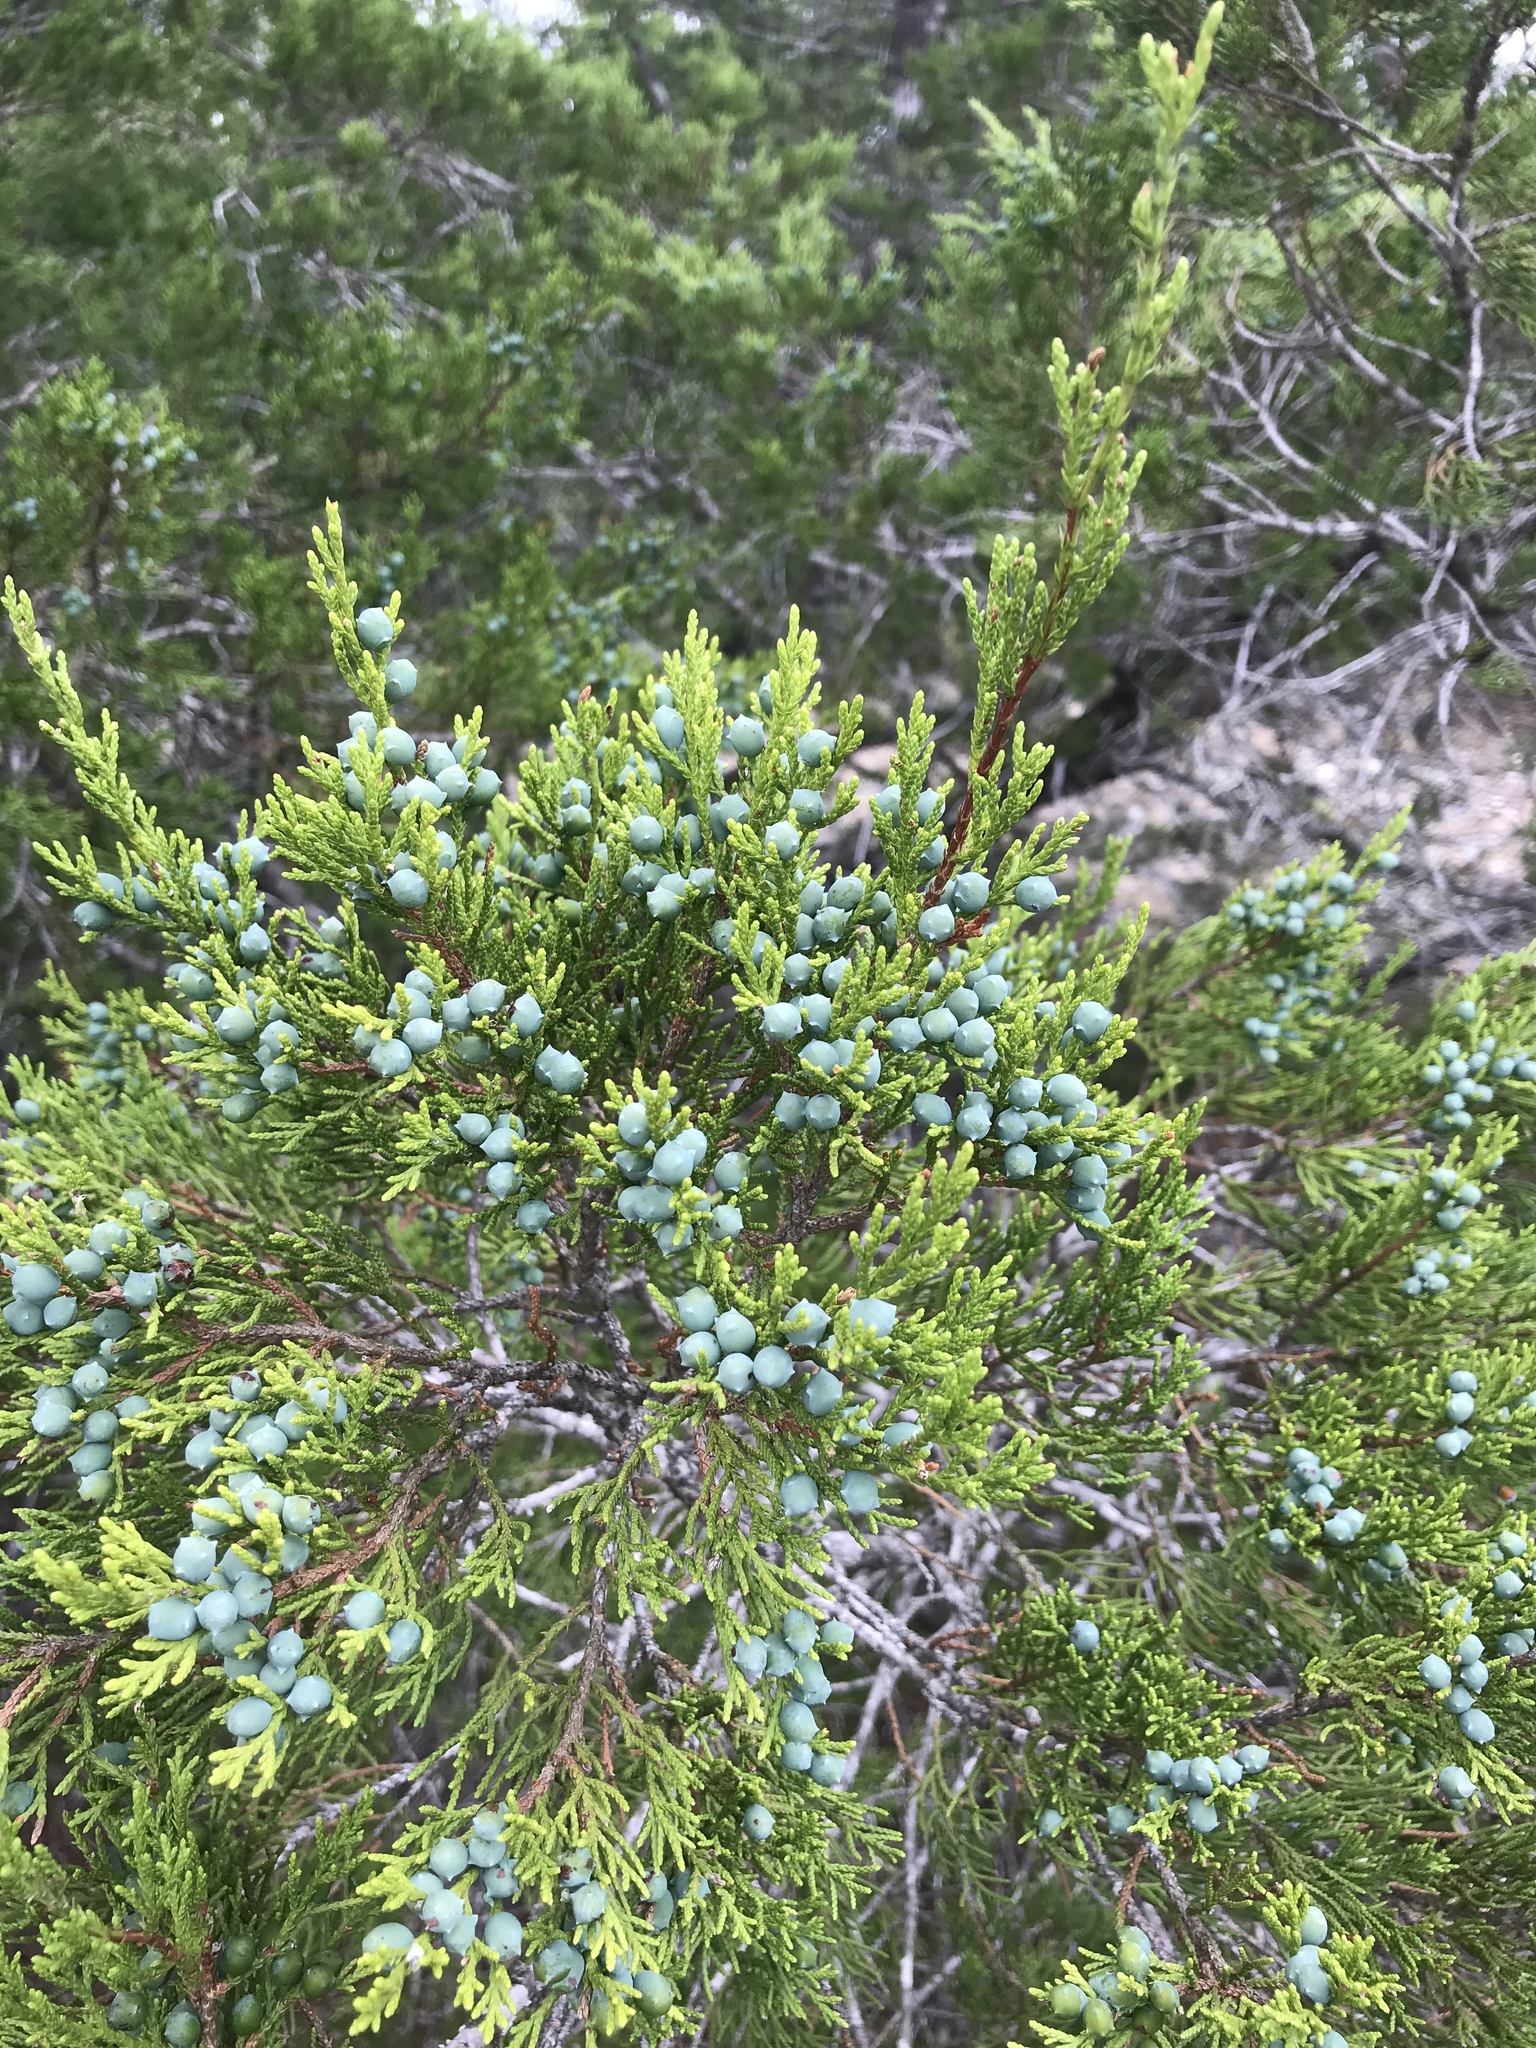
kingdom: Plantae
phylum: Tracheophyta
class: Pinopsida
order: Pinales
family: Cupressaceae
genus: Juniperus
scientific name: Juniperus ashei
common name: Mexican juniper
